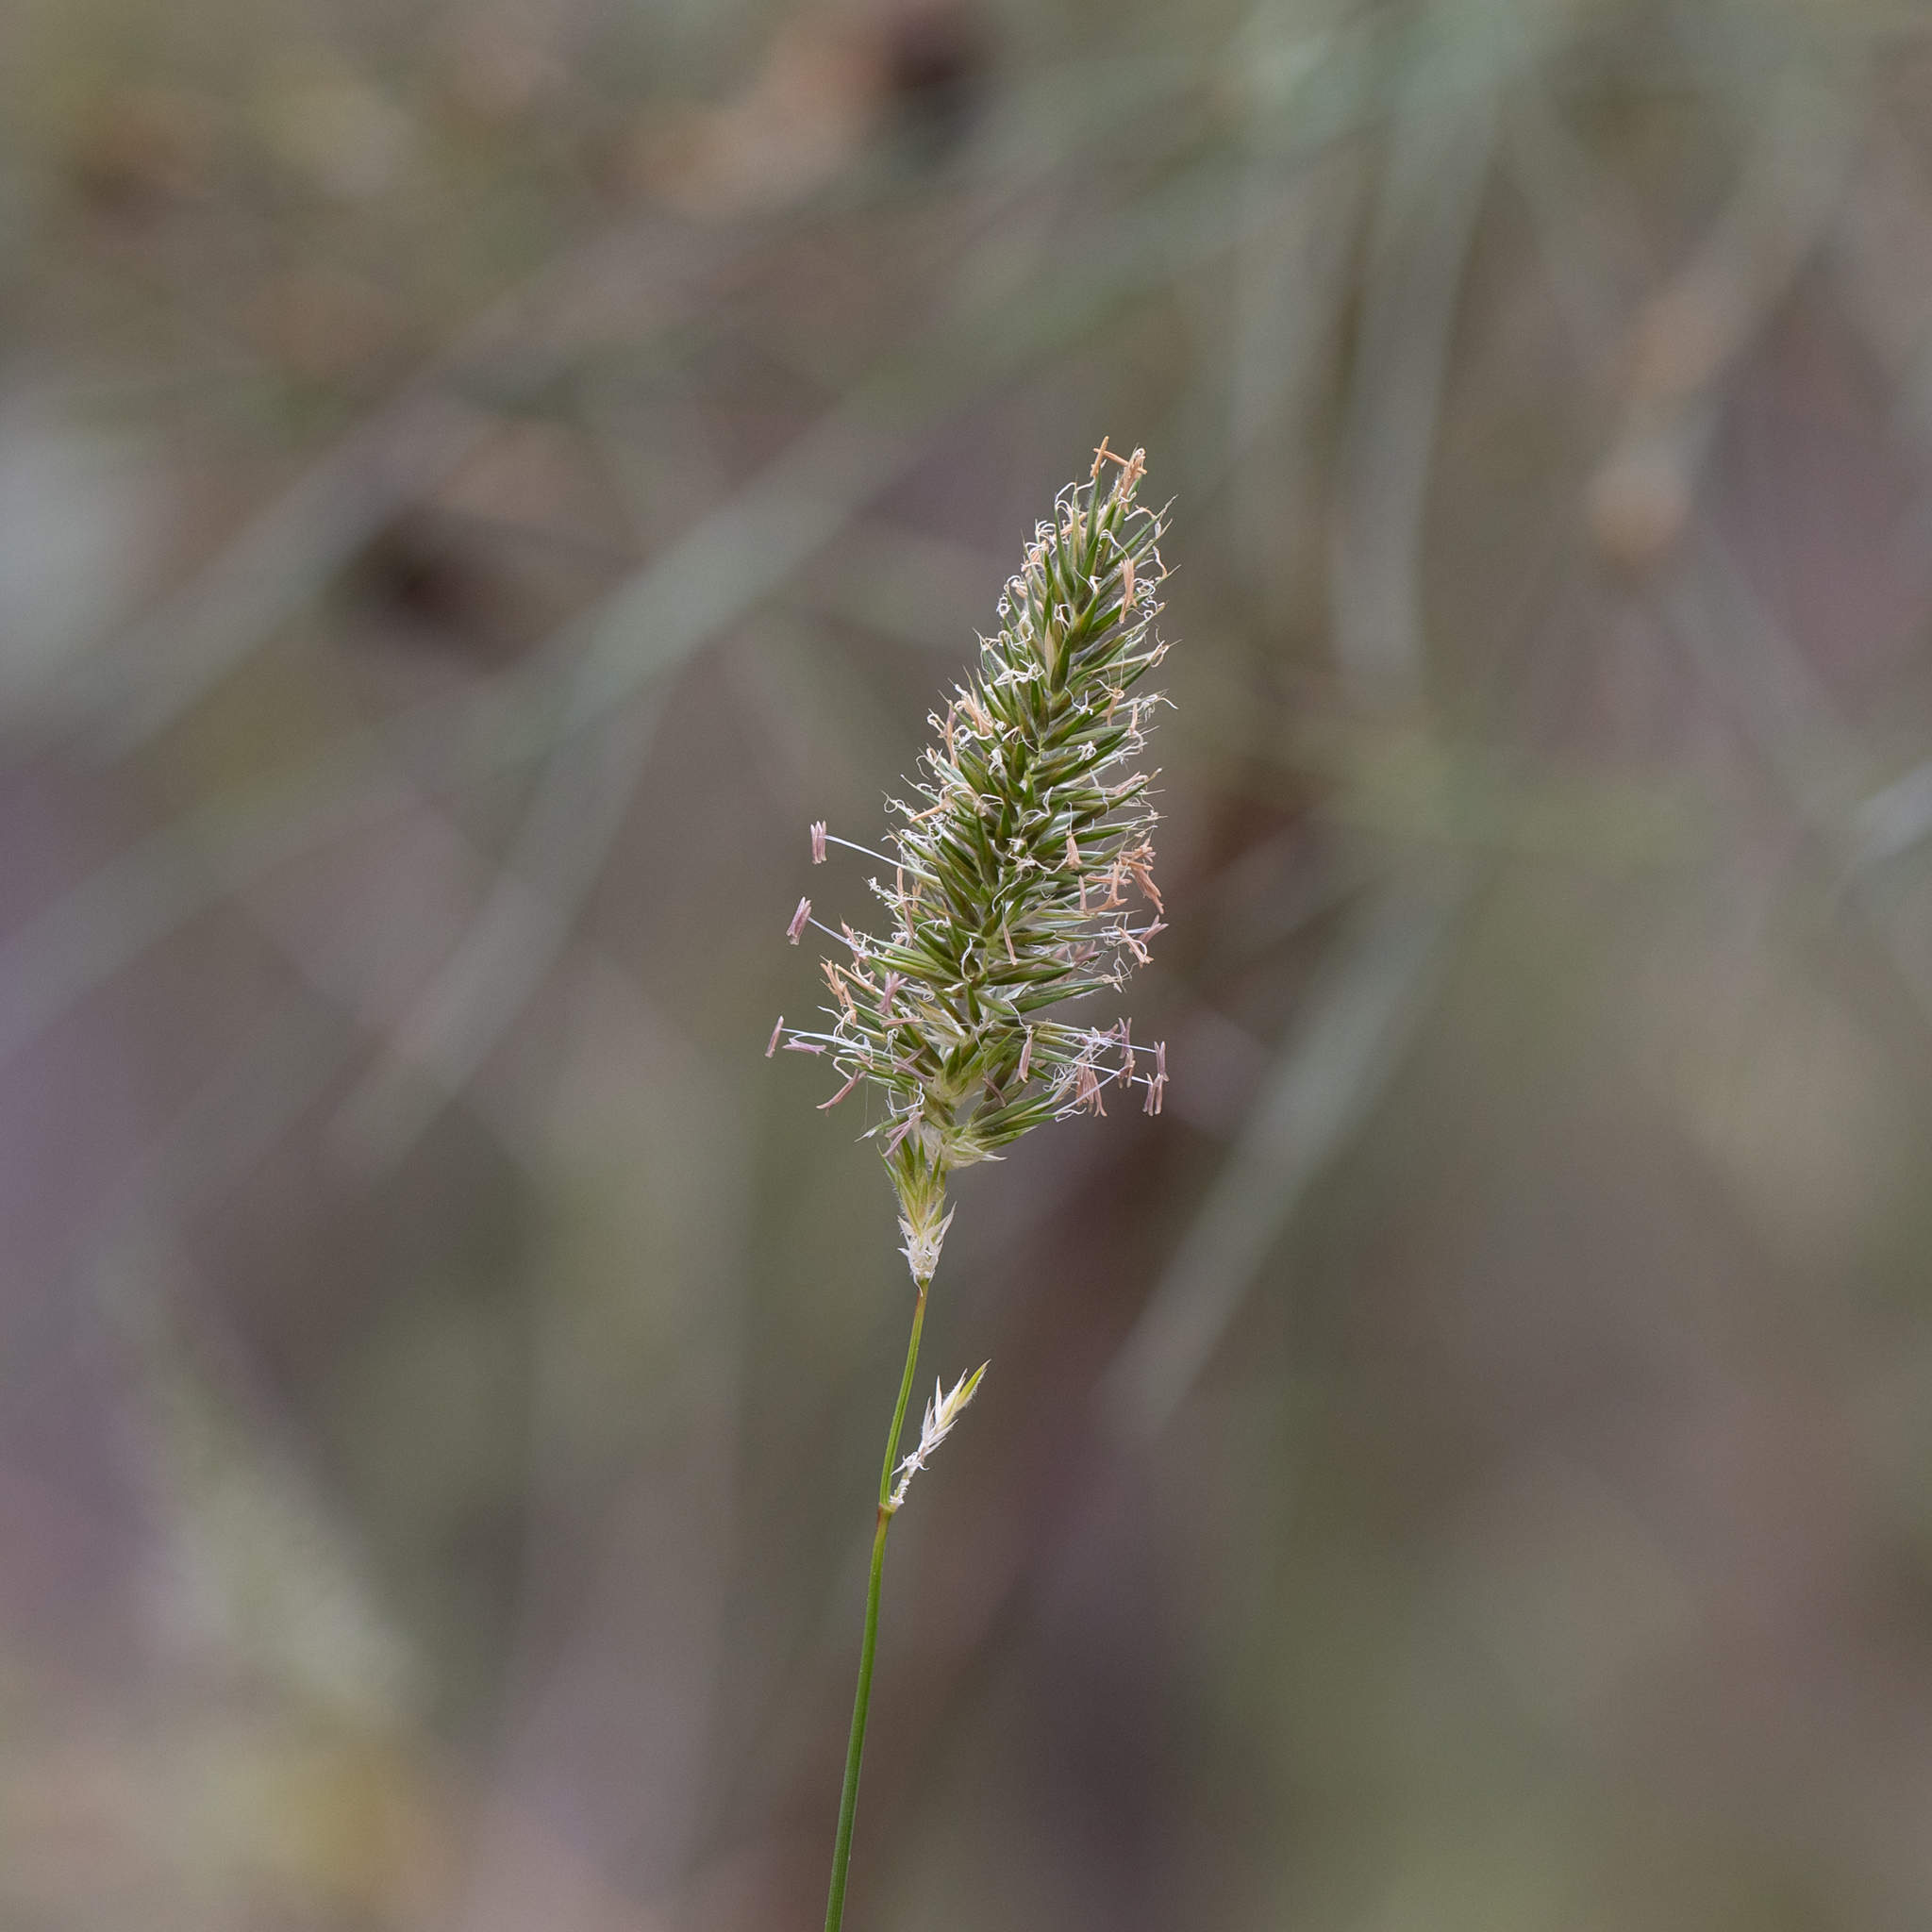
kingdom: Plantae
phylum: Tracheophyta
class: Liliopsida
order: Poales
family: Poaceae
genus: Anthoxanthum
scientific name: Anthoxanthum odoratum
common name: Sweet vernalgrass
